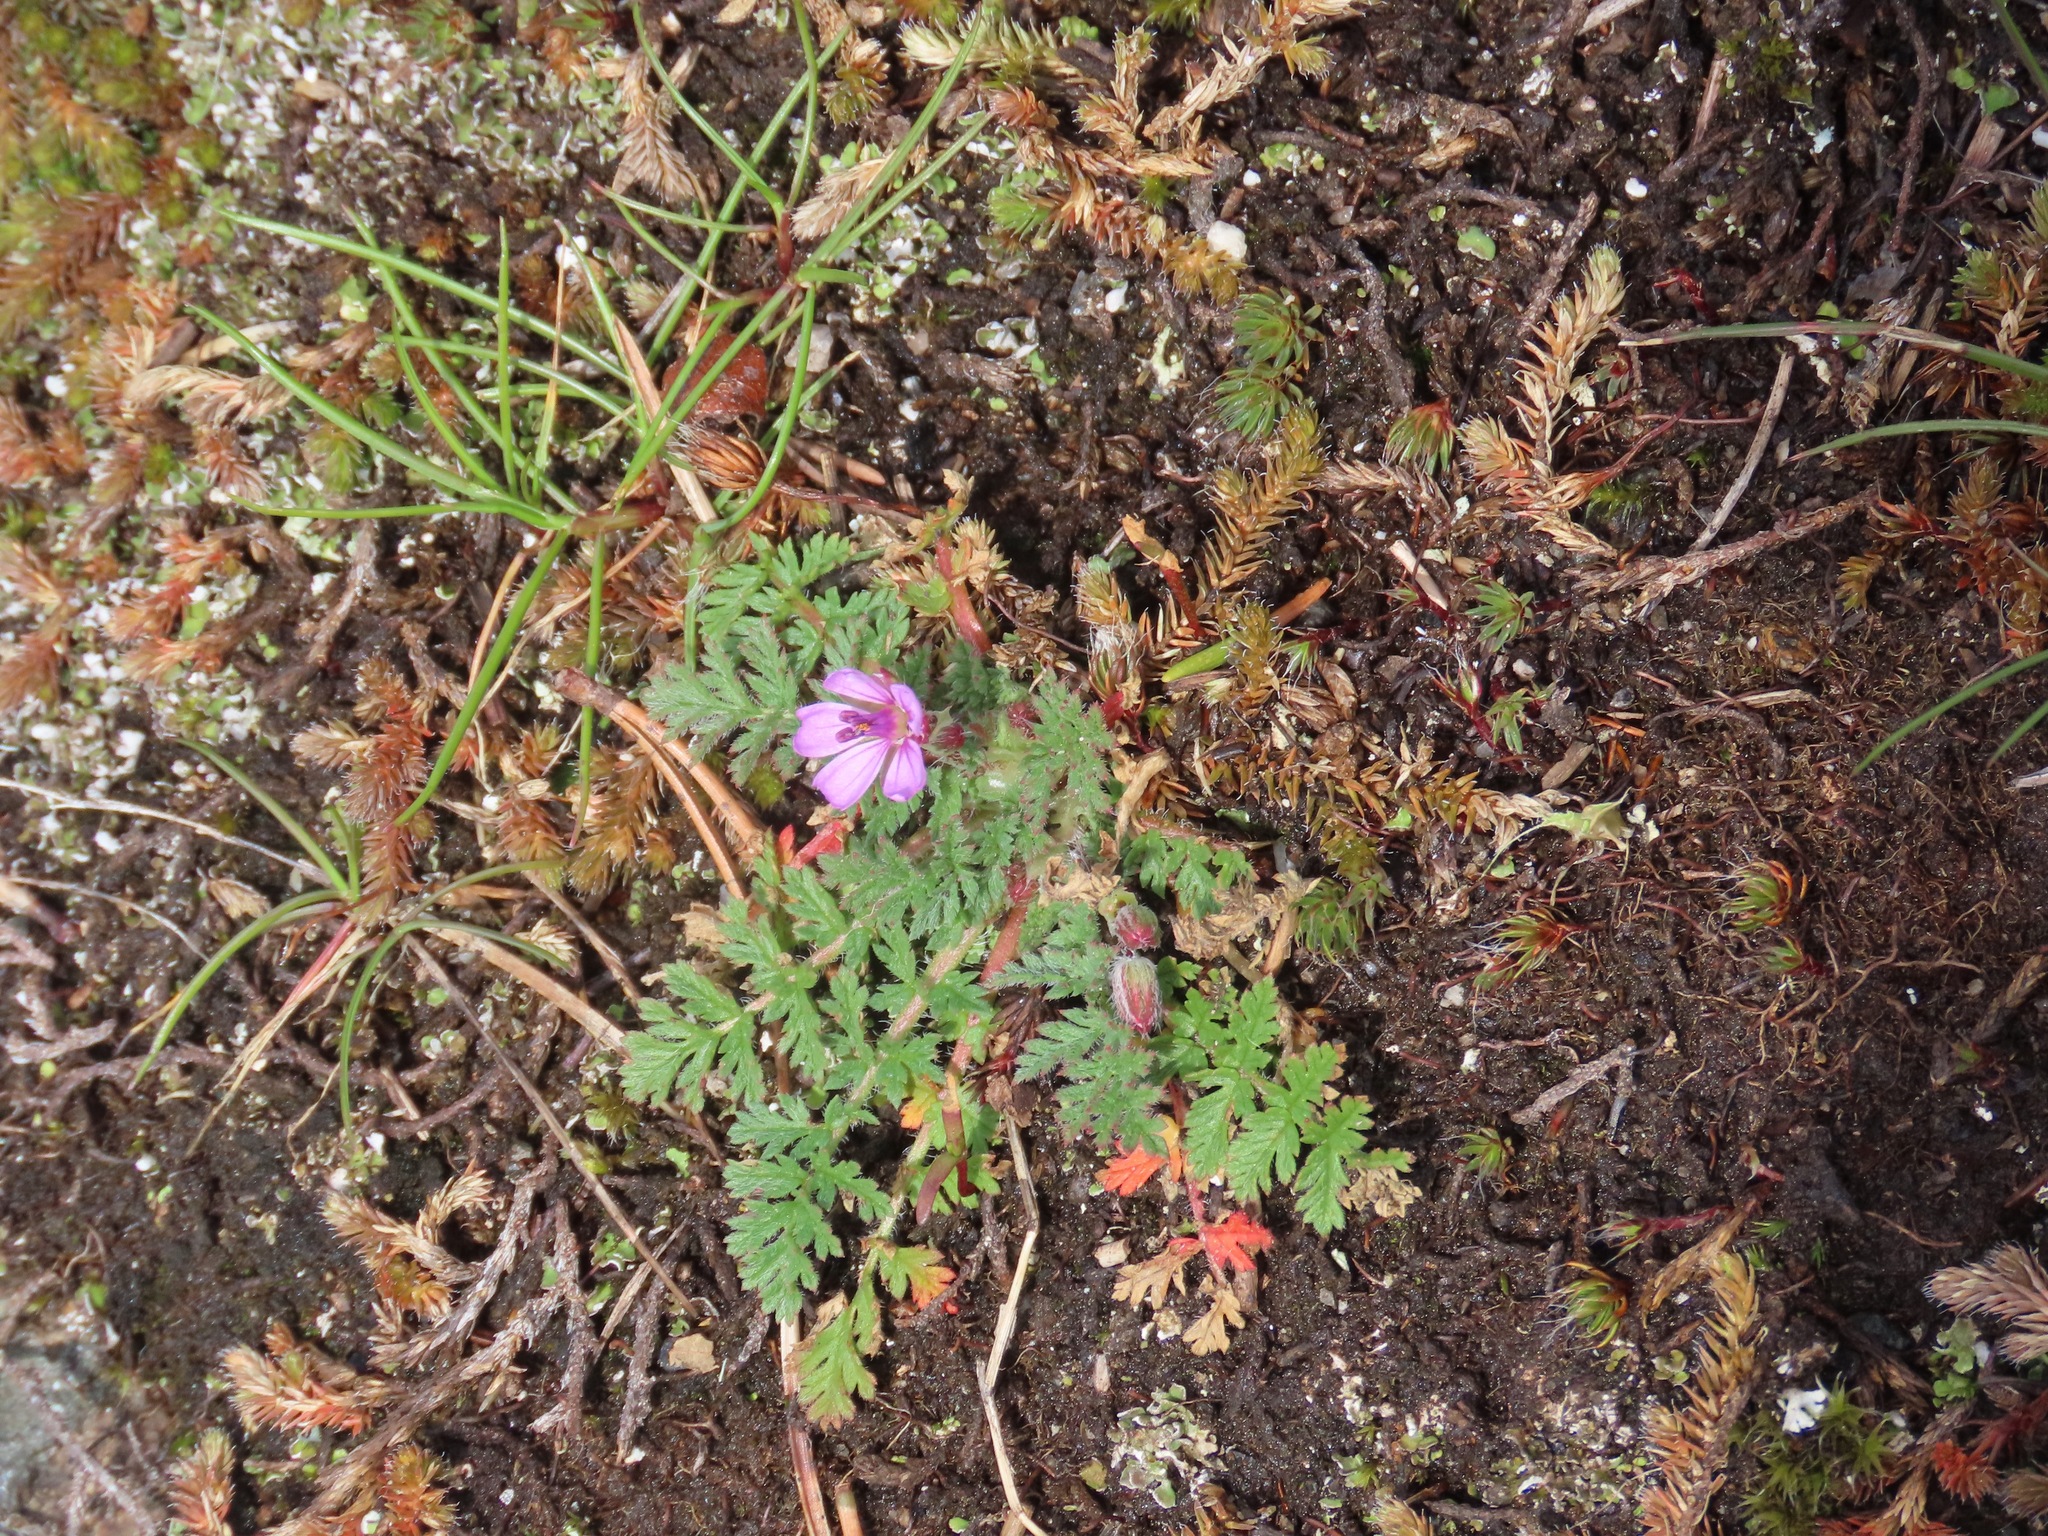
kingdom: Plantae
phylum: Tracheophyta
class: Magnoliopsida
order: Geraniales
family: Geraniaceae
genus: Erodium
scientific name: Erodium cicutarium
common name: Common stork's-bill
